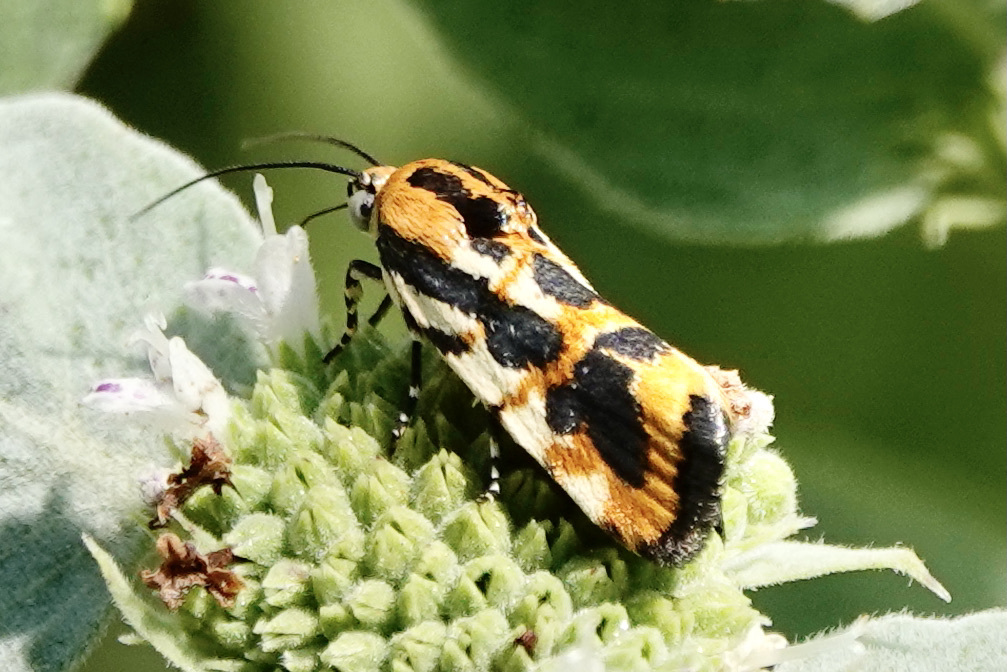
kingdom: Animalia
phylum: Arthropoda
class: Insecta
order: Lepidoptera
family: Noctuidae
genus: Acontia
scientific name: Acontia leo
